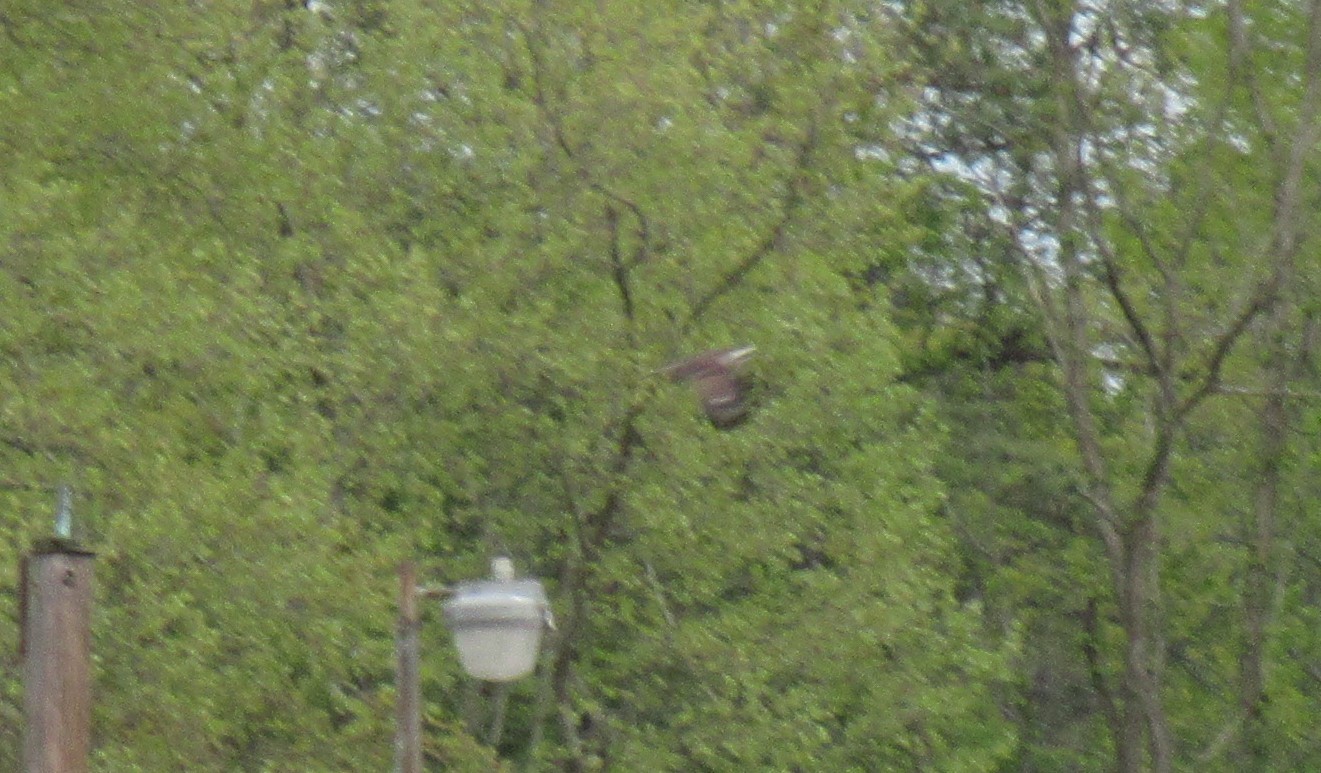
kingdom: Animalia
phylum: Chordata
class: Aves
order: Accipitriformes
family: Pandionidae
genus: Pandion
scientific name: Pandion haliaetus
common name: Osprey
